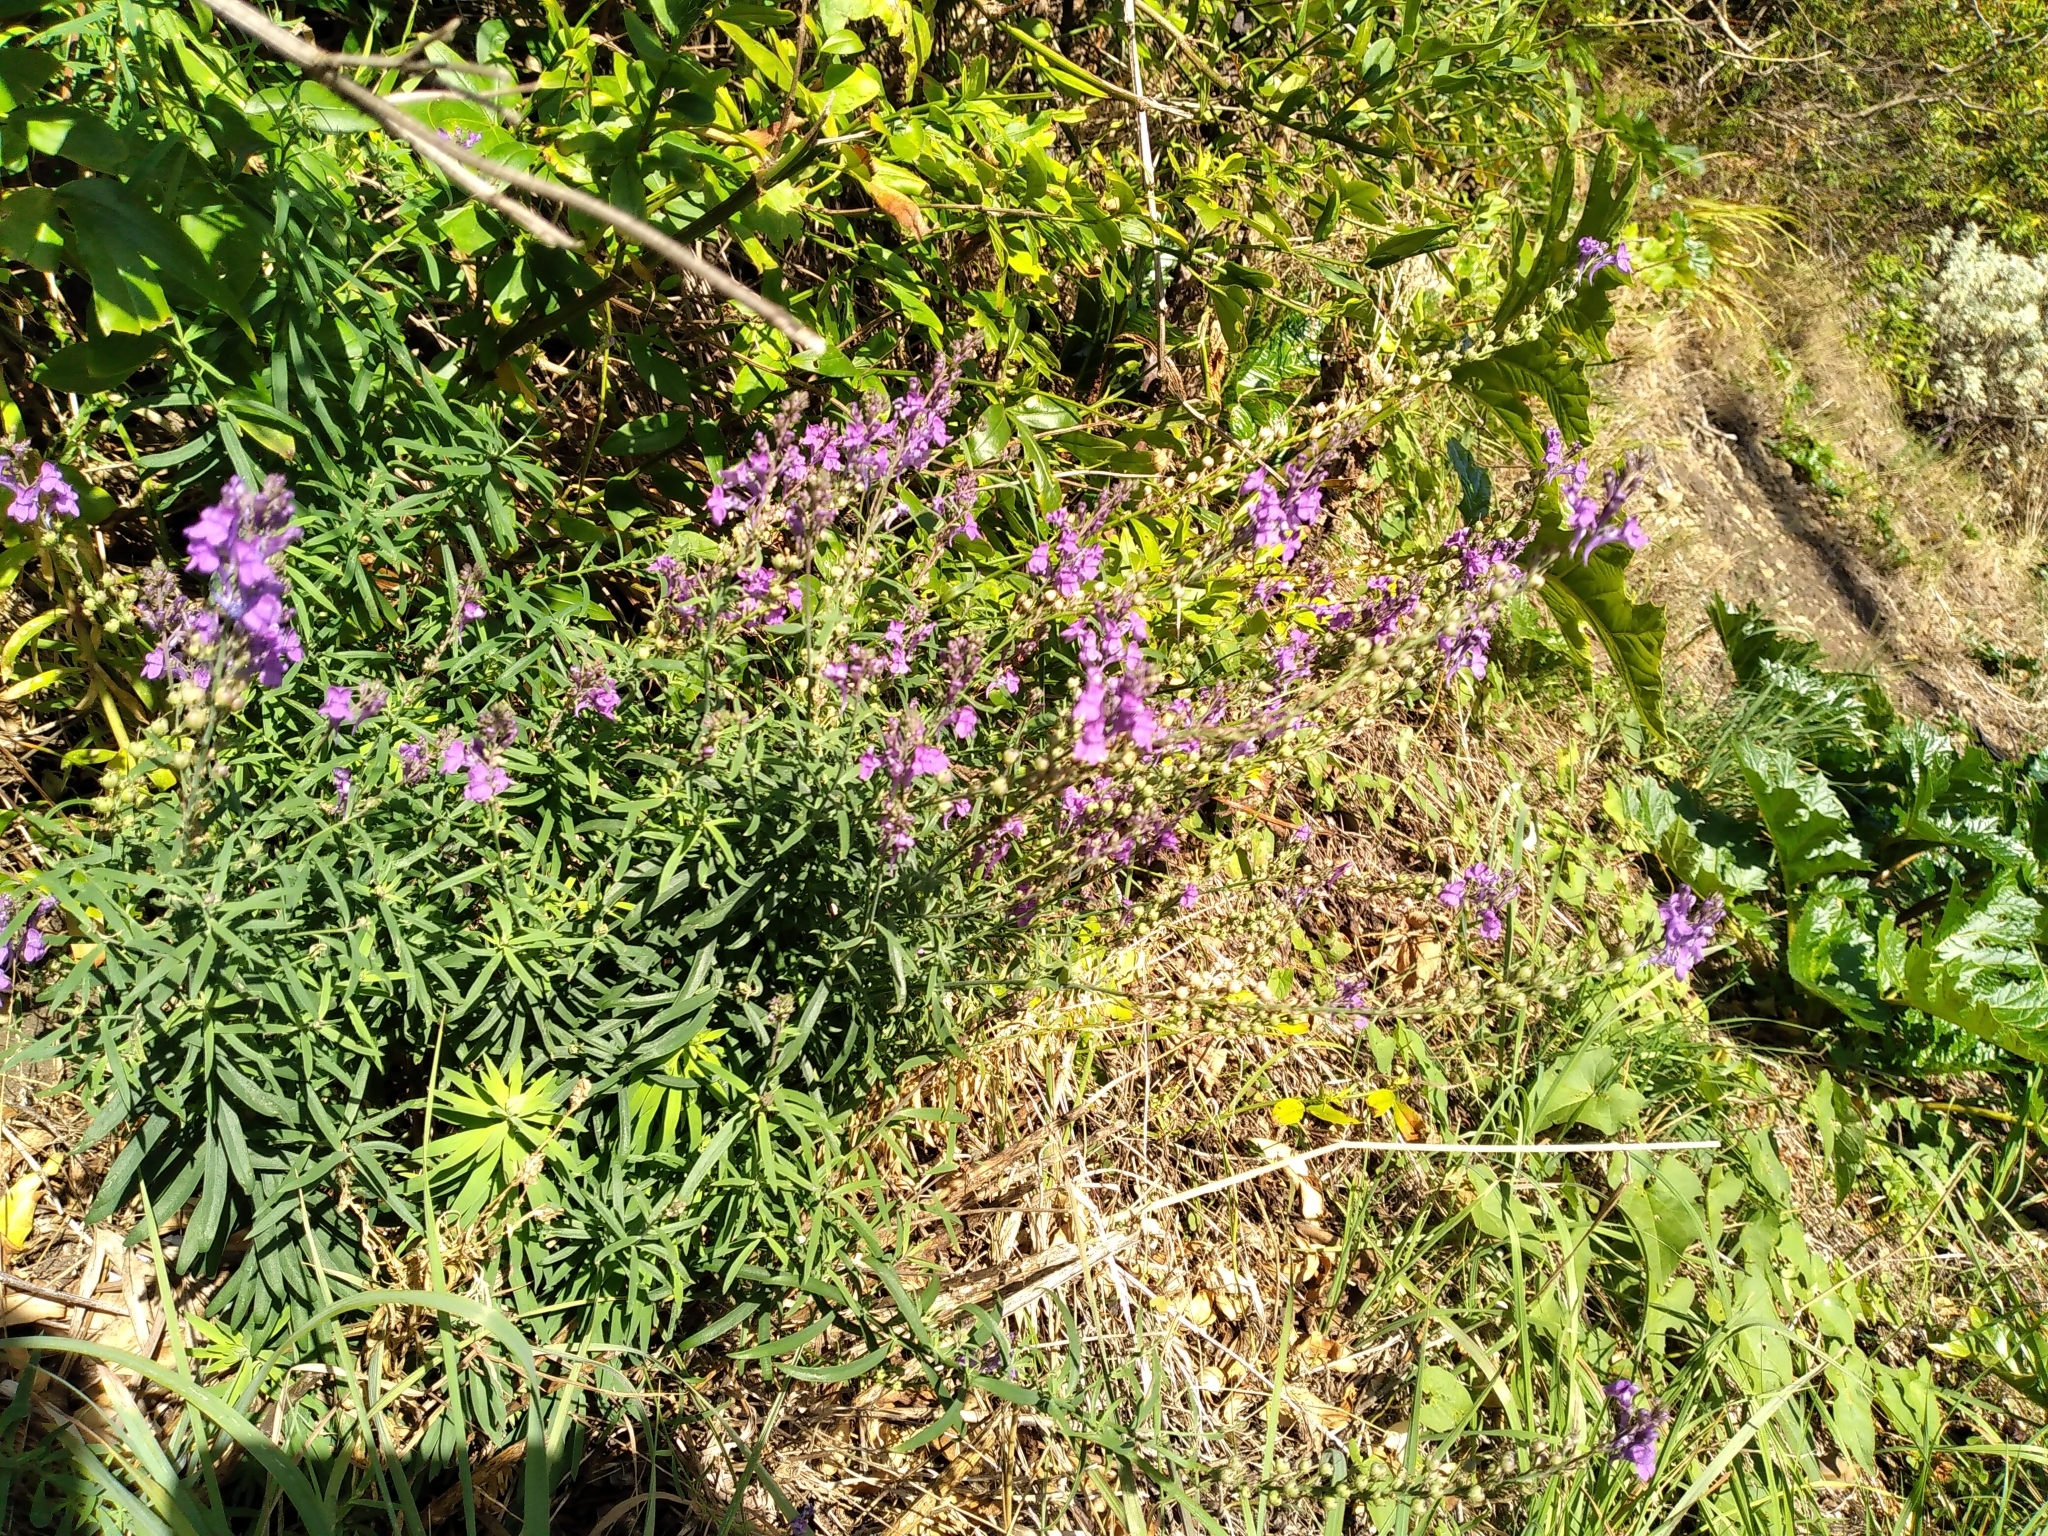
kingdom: Plantae
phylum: Tracheophyta
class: Magnoliopsida
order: Lamiales
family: Plantaginaceae
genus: Linaria
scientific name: Linaria purpurea
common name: Purple toadflax
